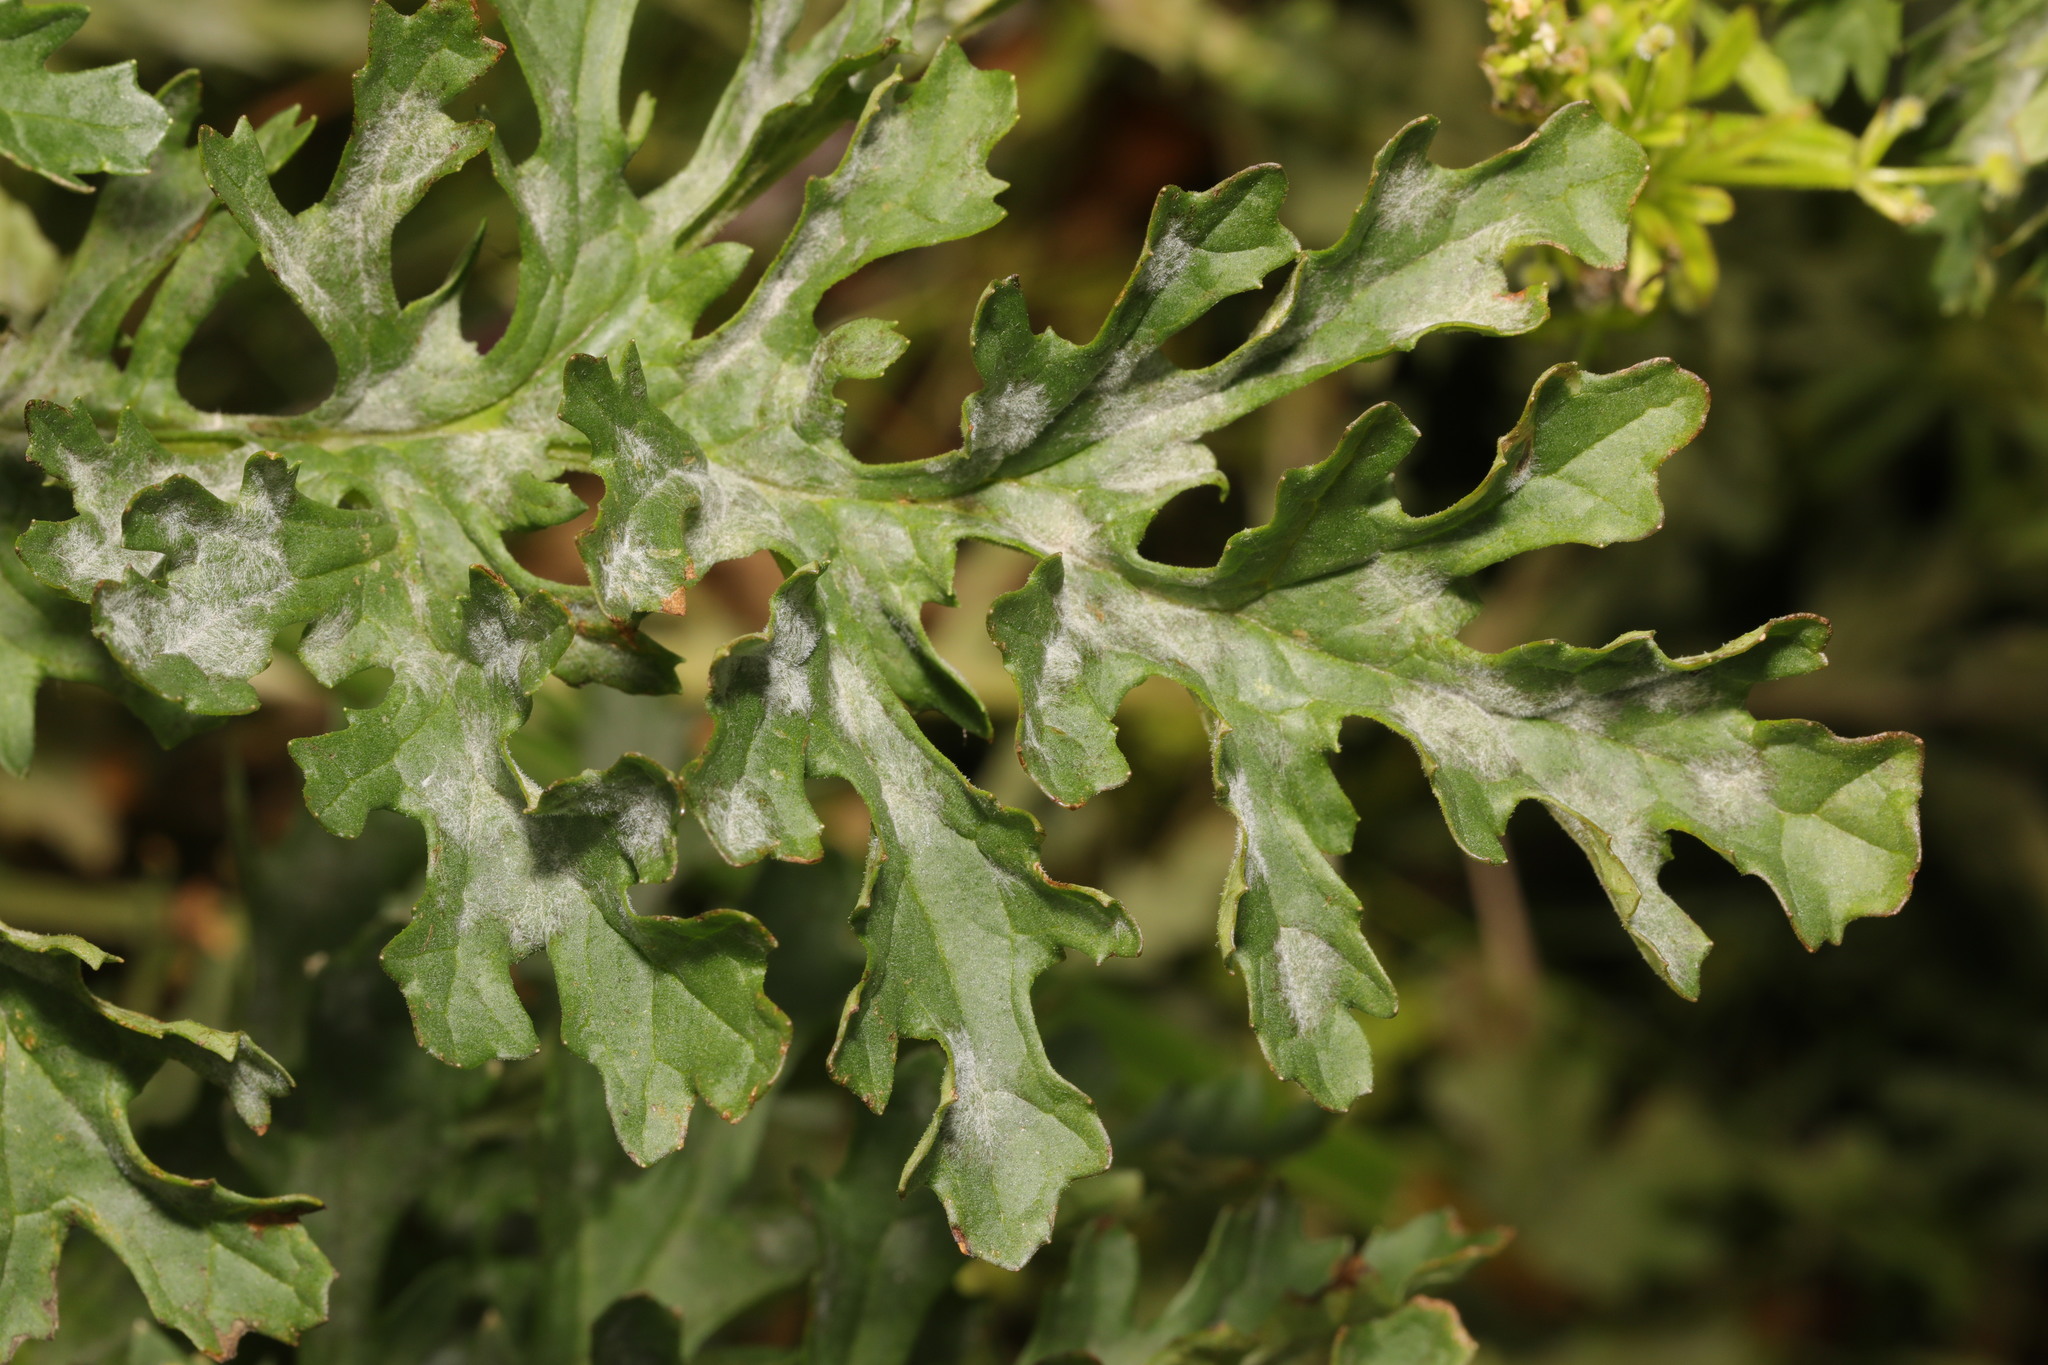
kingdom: Fungi
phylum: Ascomycota
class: Leotiomycetes
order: Helotiales
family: Erysiphaceae
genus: Golovinomyces
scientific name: Golovinomyces senecionis
